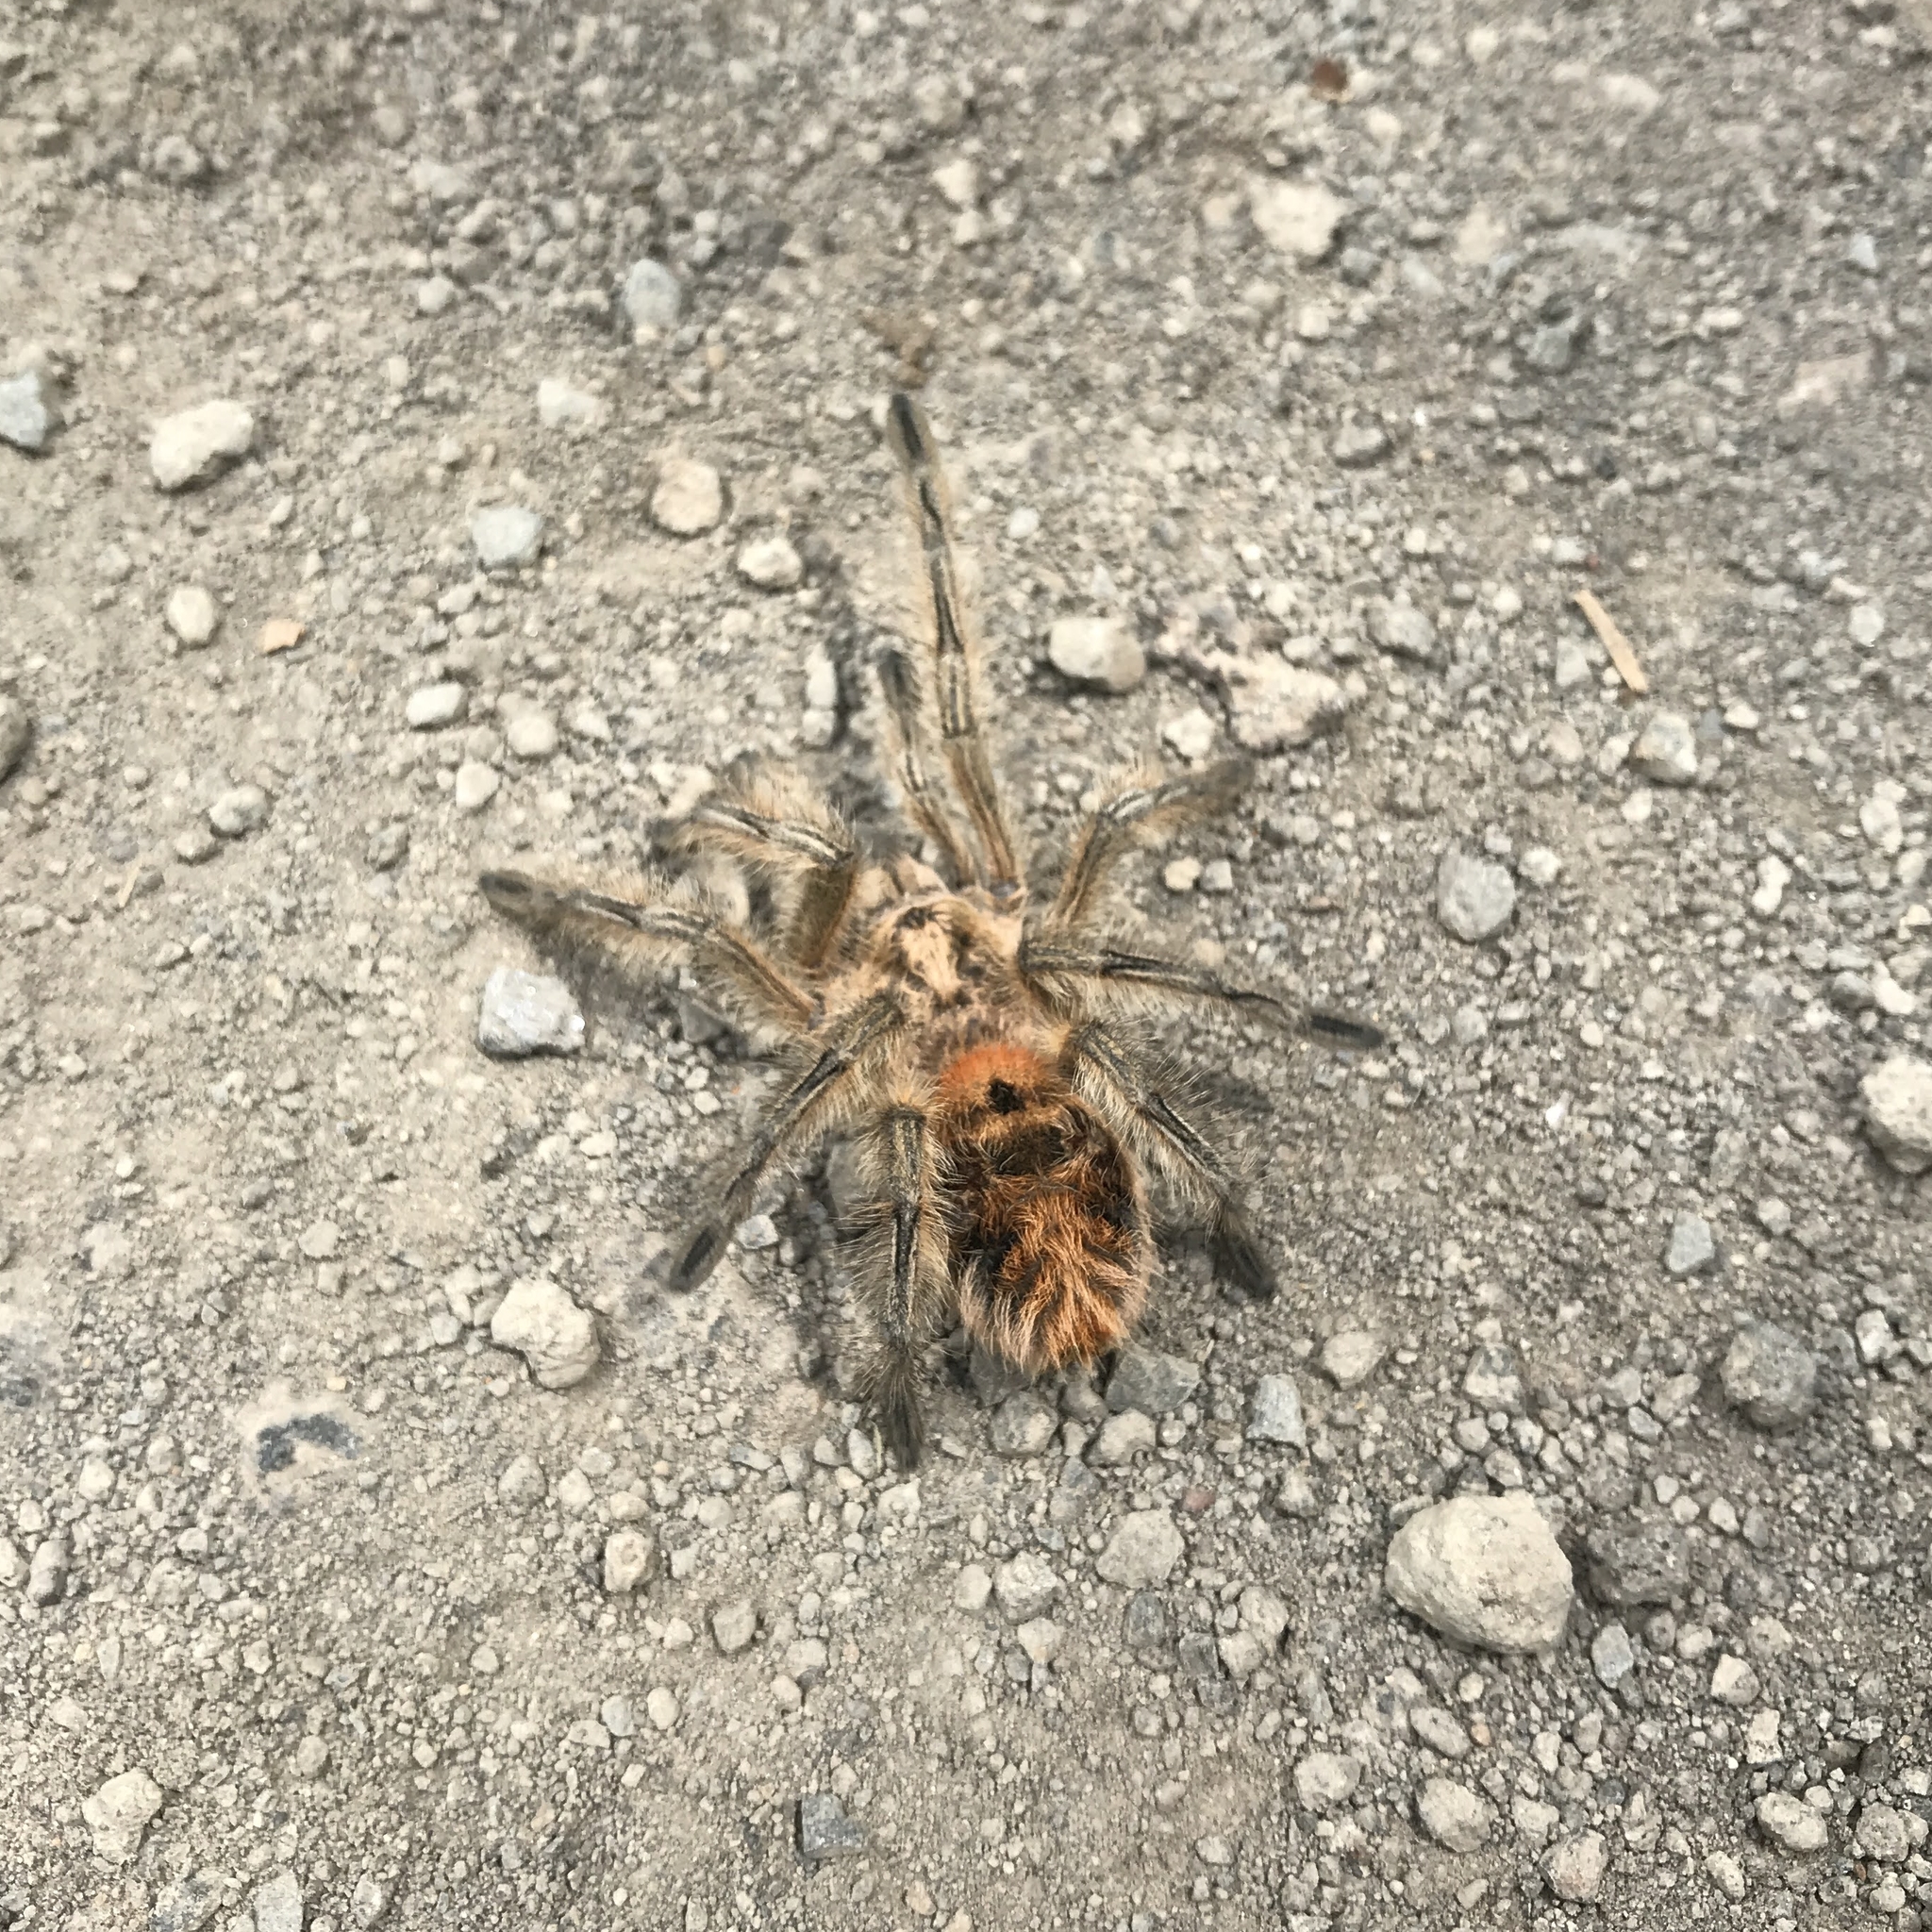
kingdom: Animalia
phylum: Arthropoda
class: Arachnida
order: Araneae
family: Theraphosidae
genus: Phrixotrichus
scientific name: Phrixotrichus vulpinus
